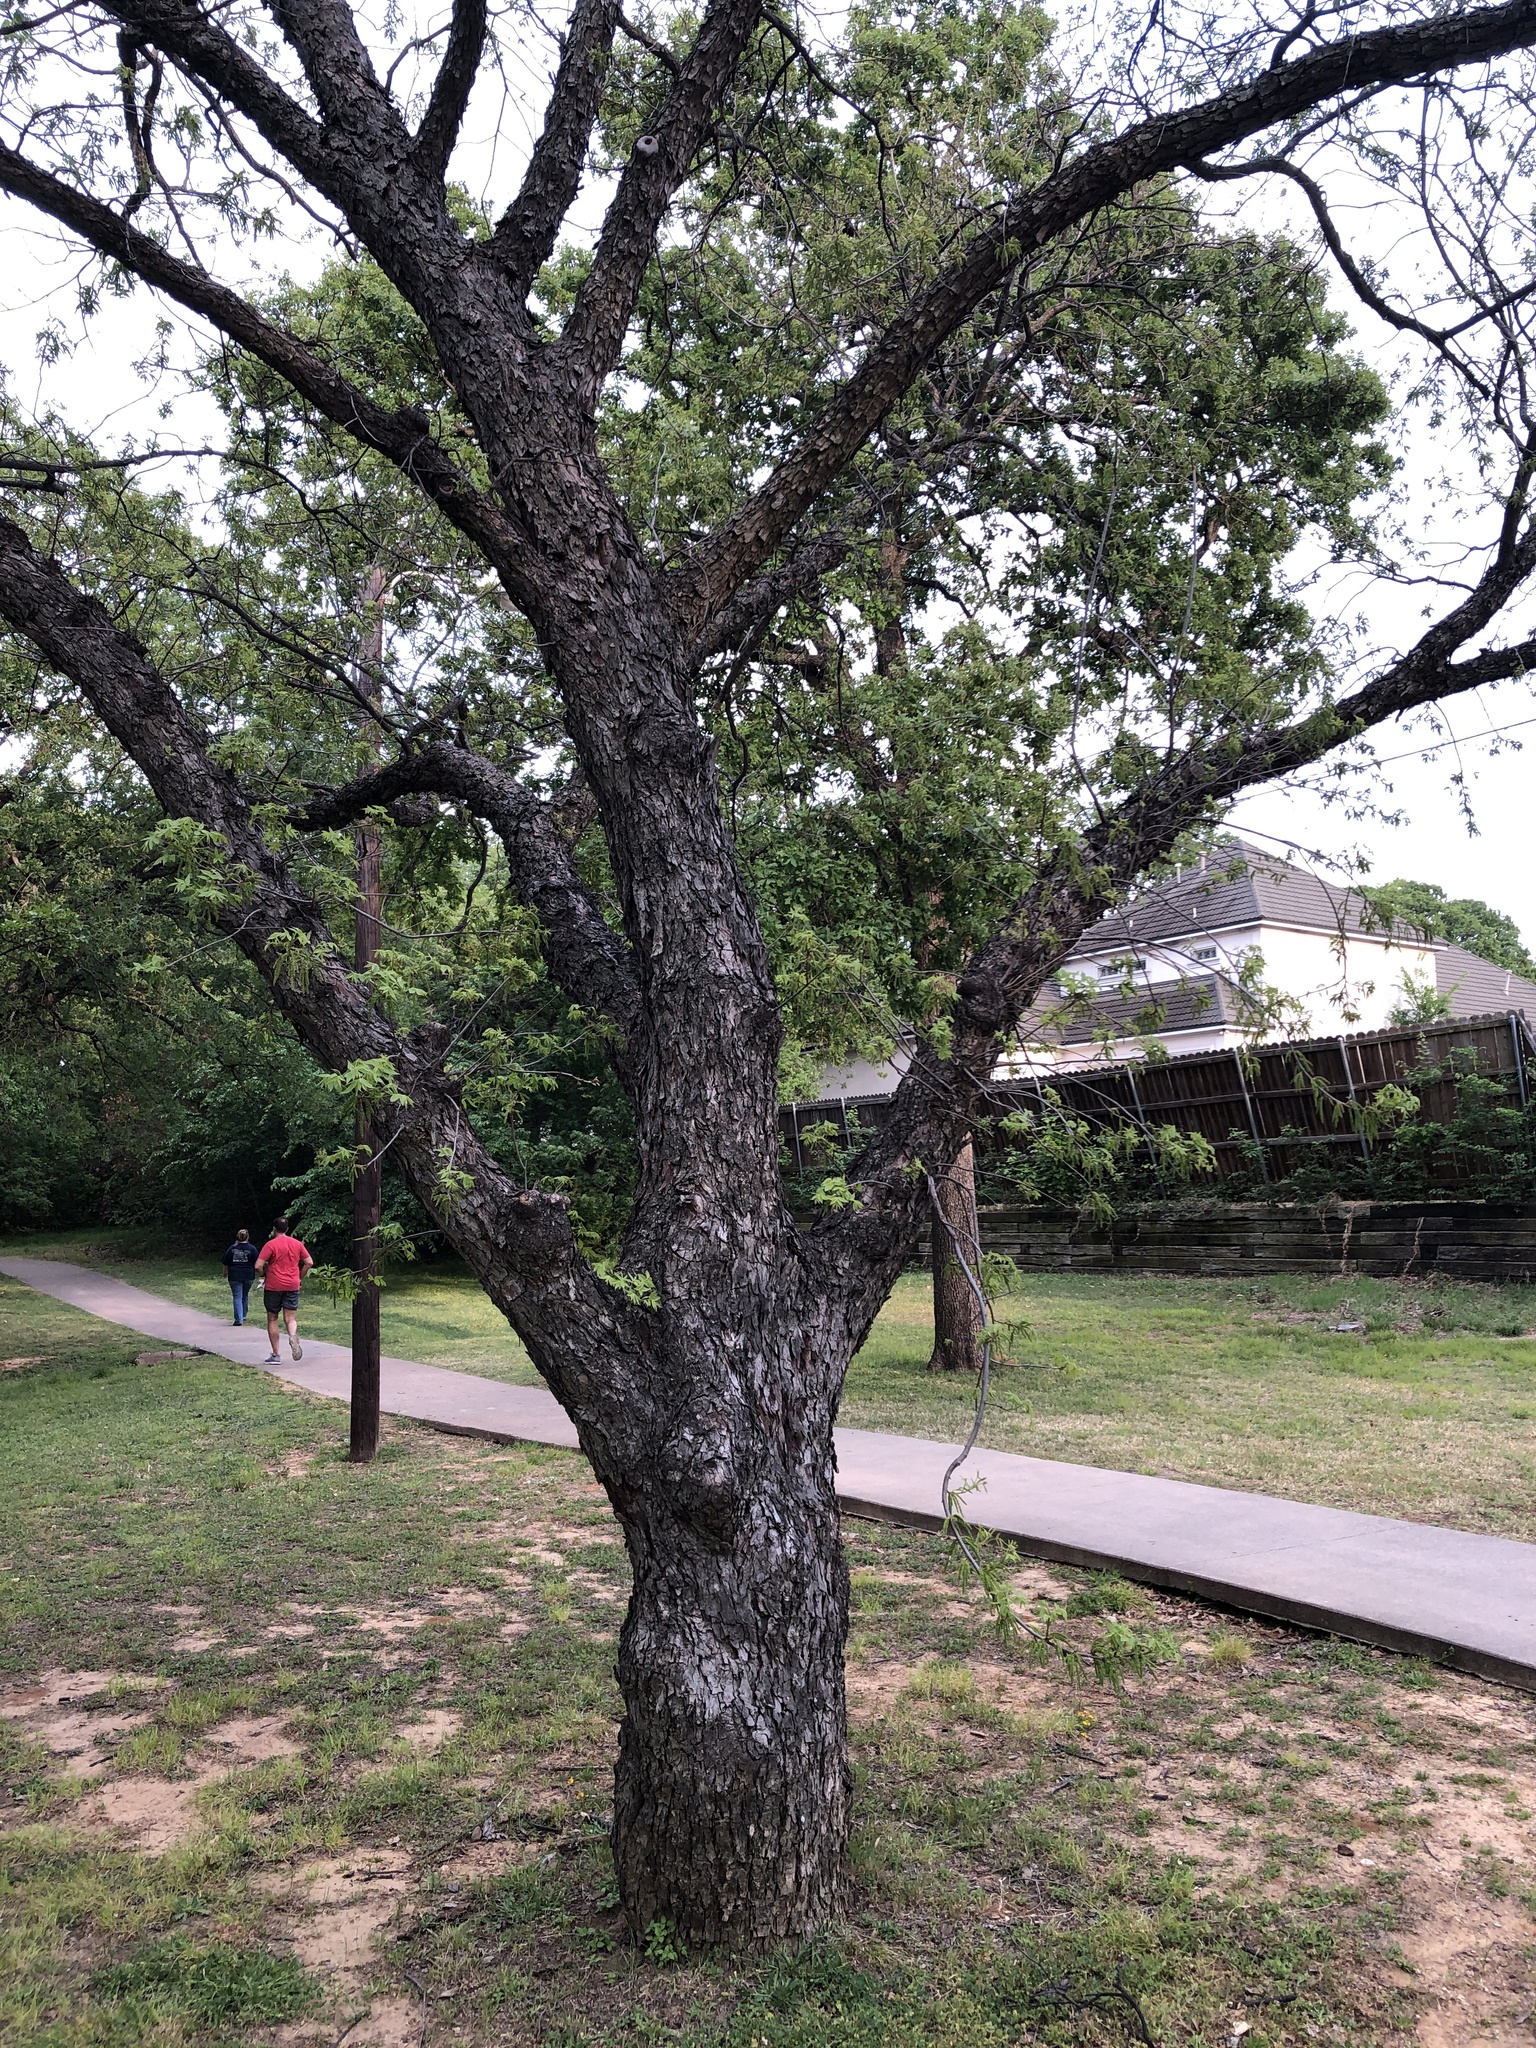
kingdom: Plantae
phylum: Tracheophyta
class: Magnoliopsida
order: Fagales
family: Juglandaceae
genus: Carya
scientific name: Carya illinoinensis
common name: Pecan
